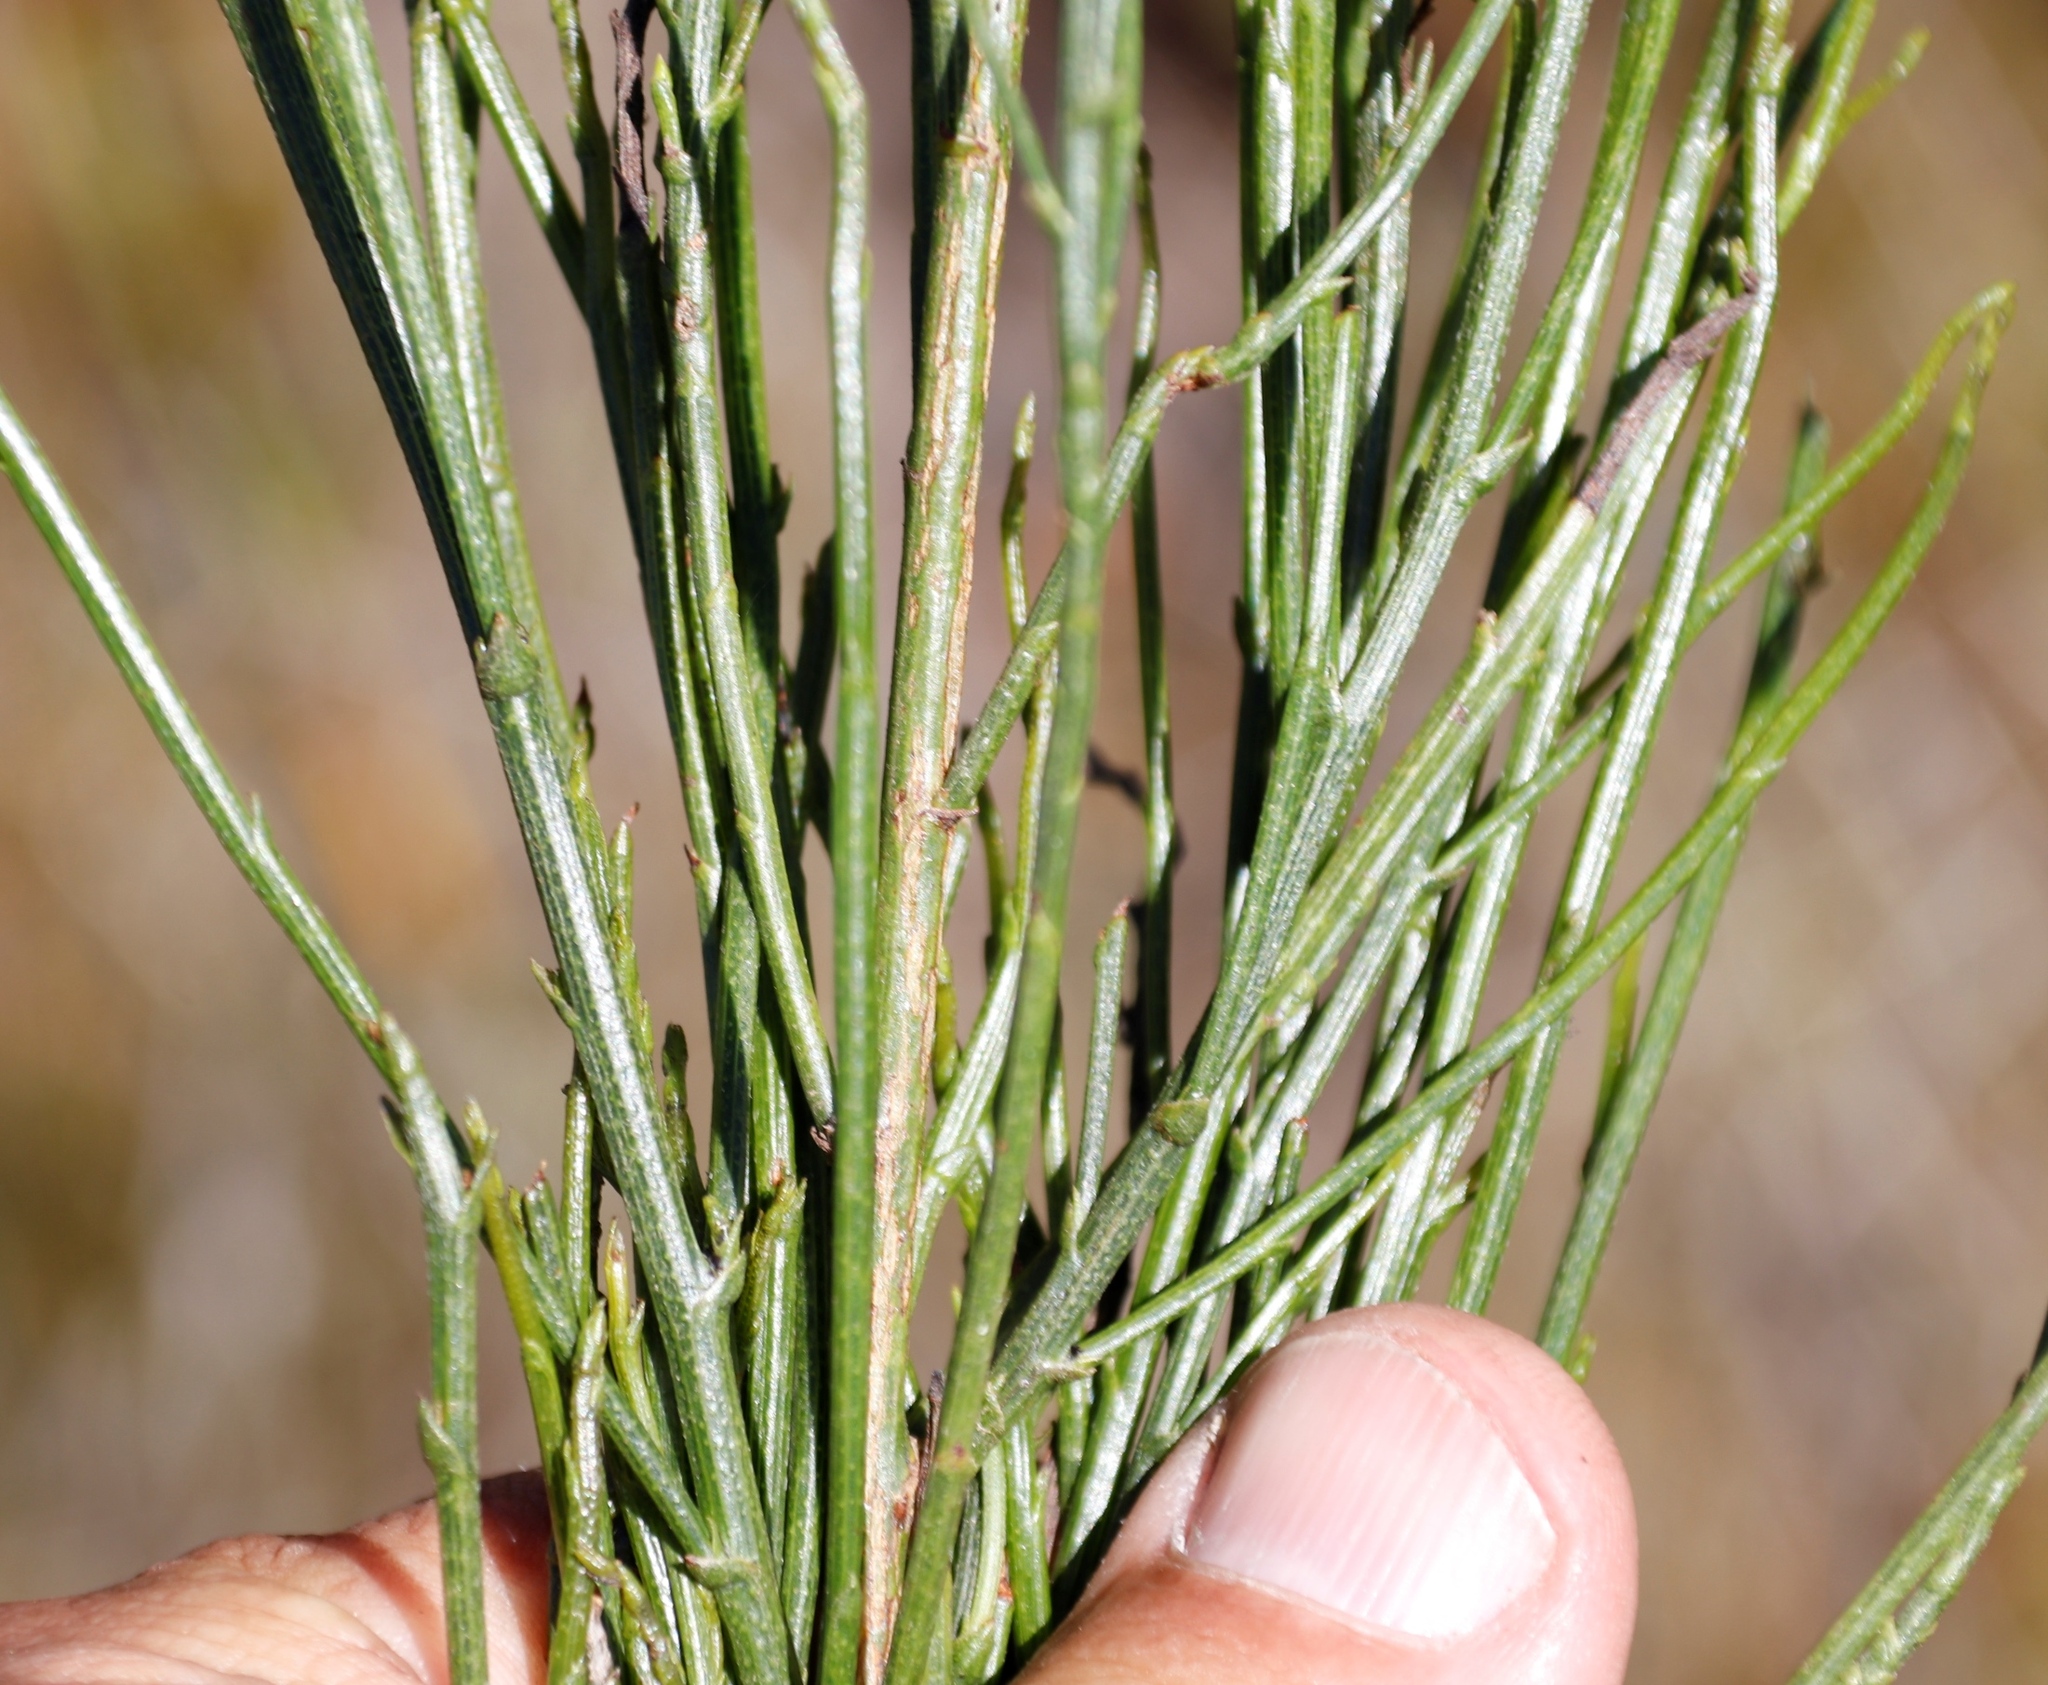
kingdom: Plantae
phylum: Tracheophyta
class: Magnoliopsida
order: Fabales
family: Fabaceae
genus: Psoralea
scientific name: Psoralea usitata
